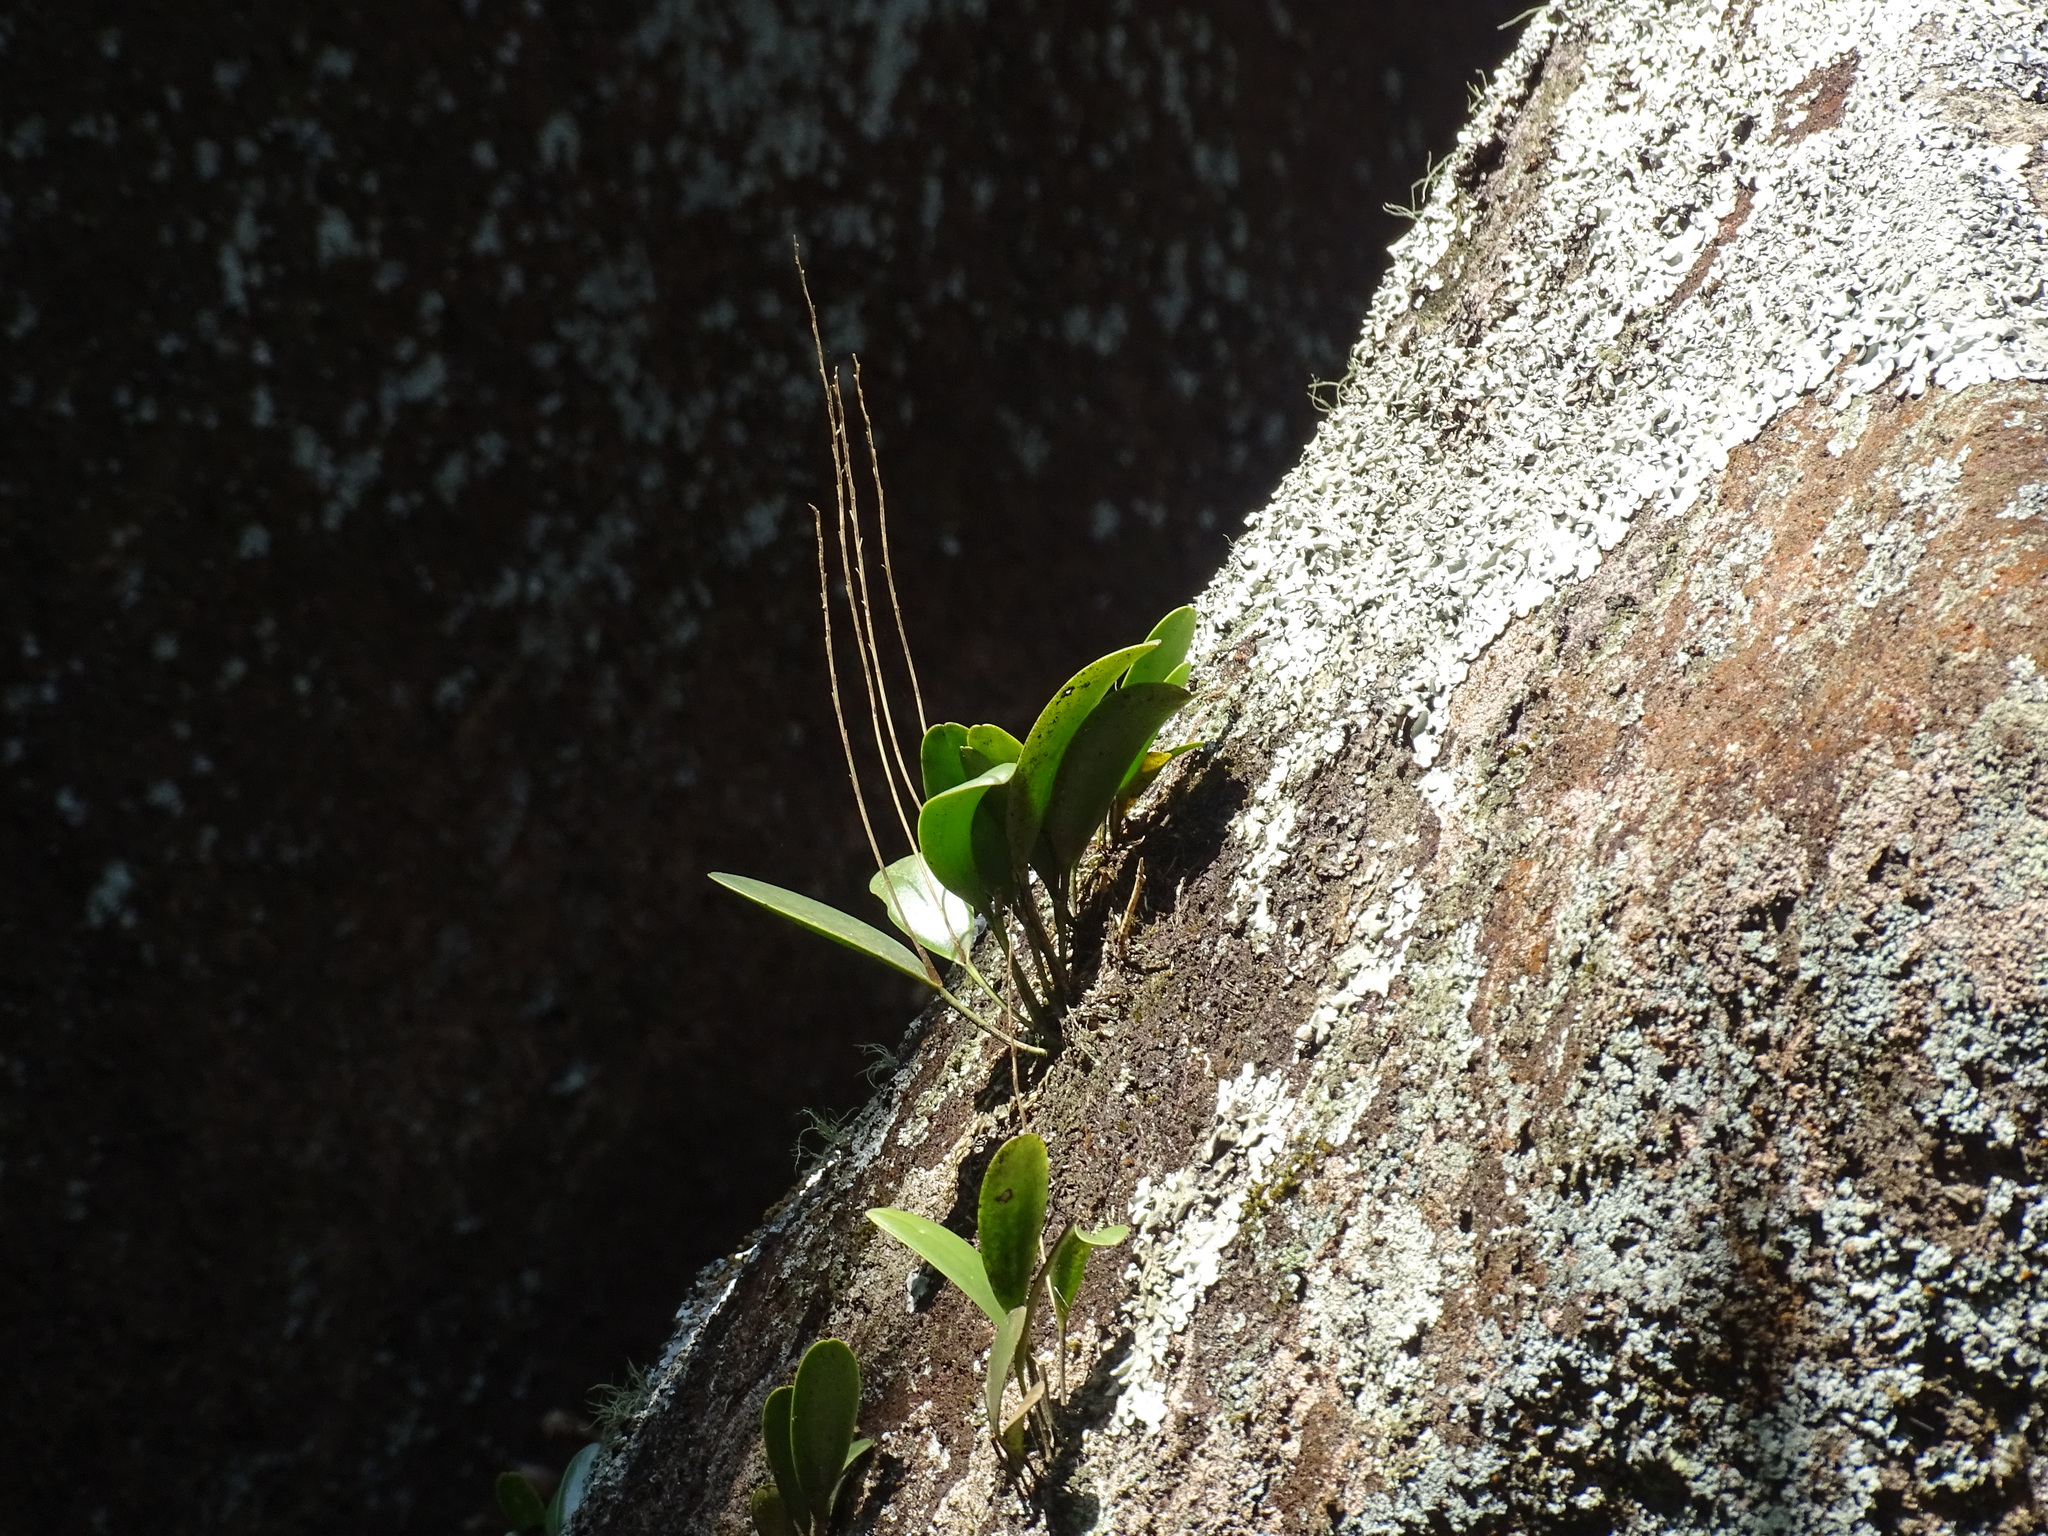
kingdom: Plantae
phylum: Tracheophyta
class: Liliopsida
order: Asparagales
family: Orchidaceae
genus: Pleurothallis
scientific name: Pleurothallis quadrifida
